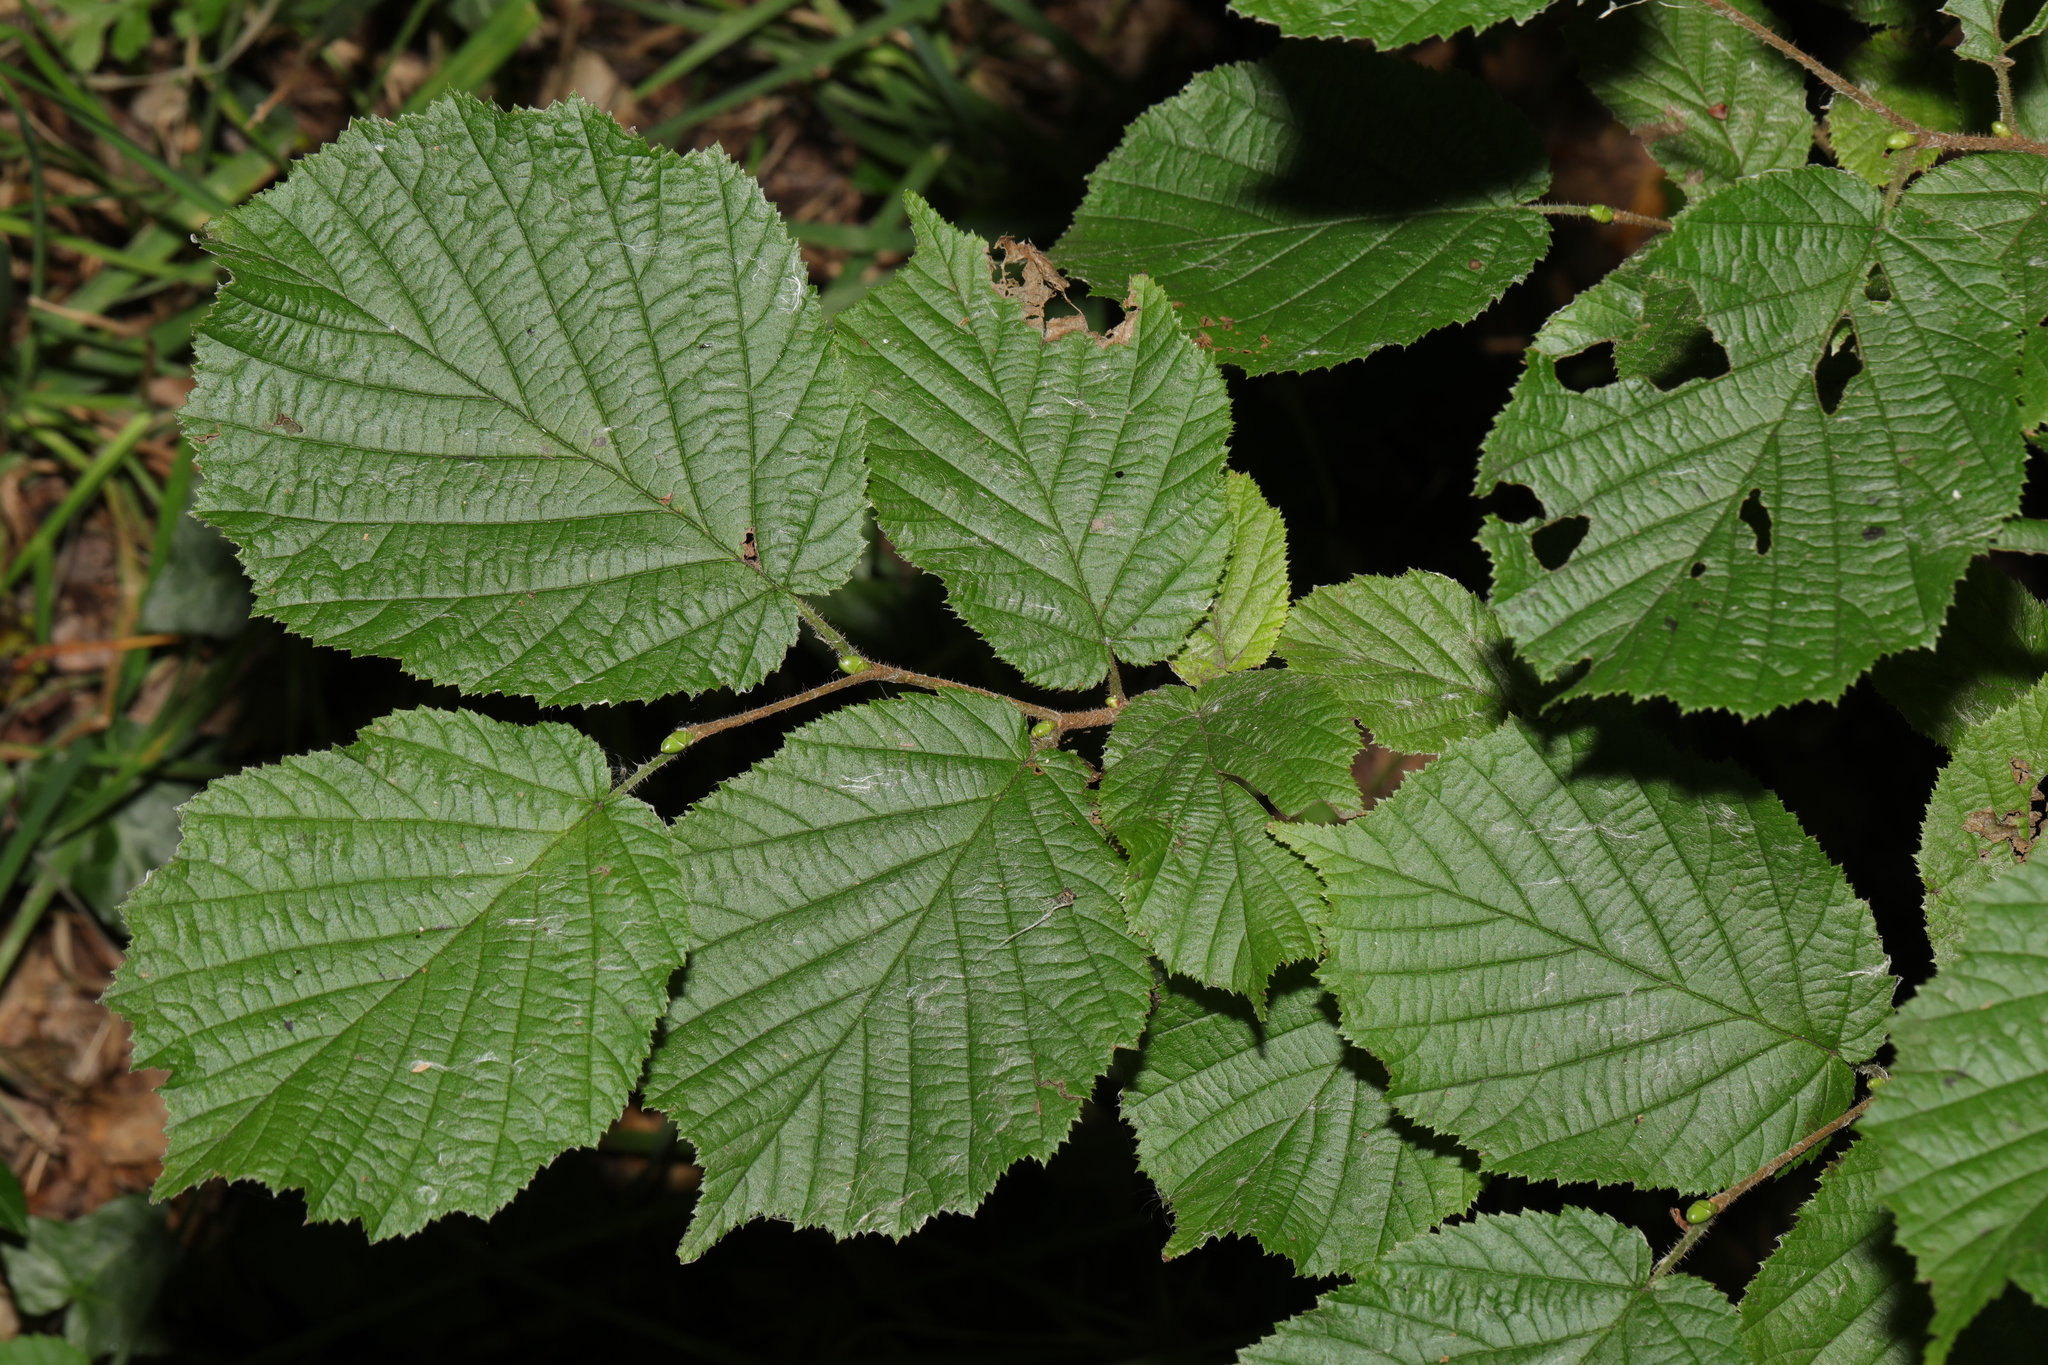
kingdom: Plantae
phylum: Tracheophyta
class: Magnoliopsida
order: Fagales
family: Betulaceae
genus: Corylus
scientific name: Corylus avellana
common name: European hazel
